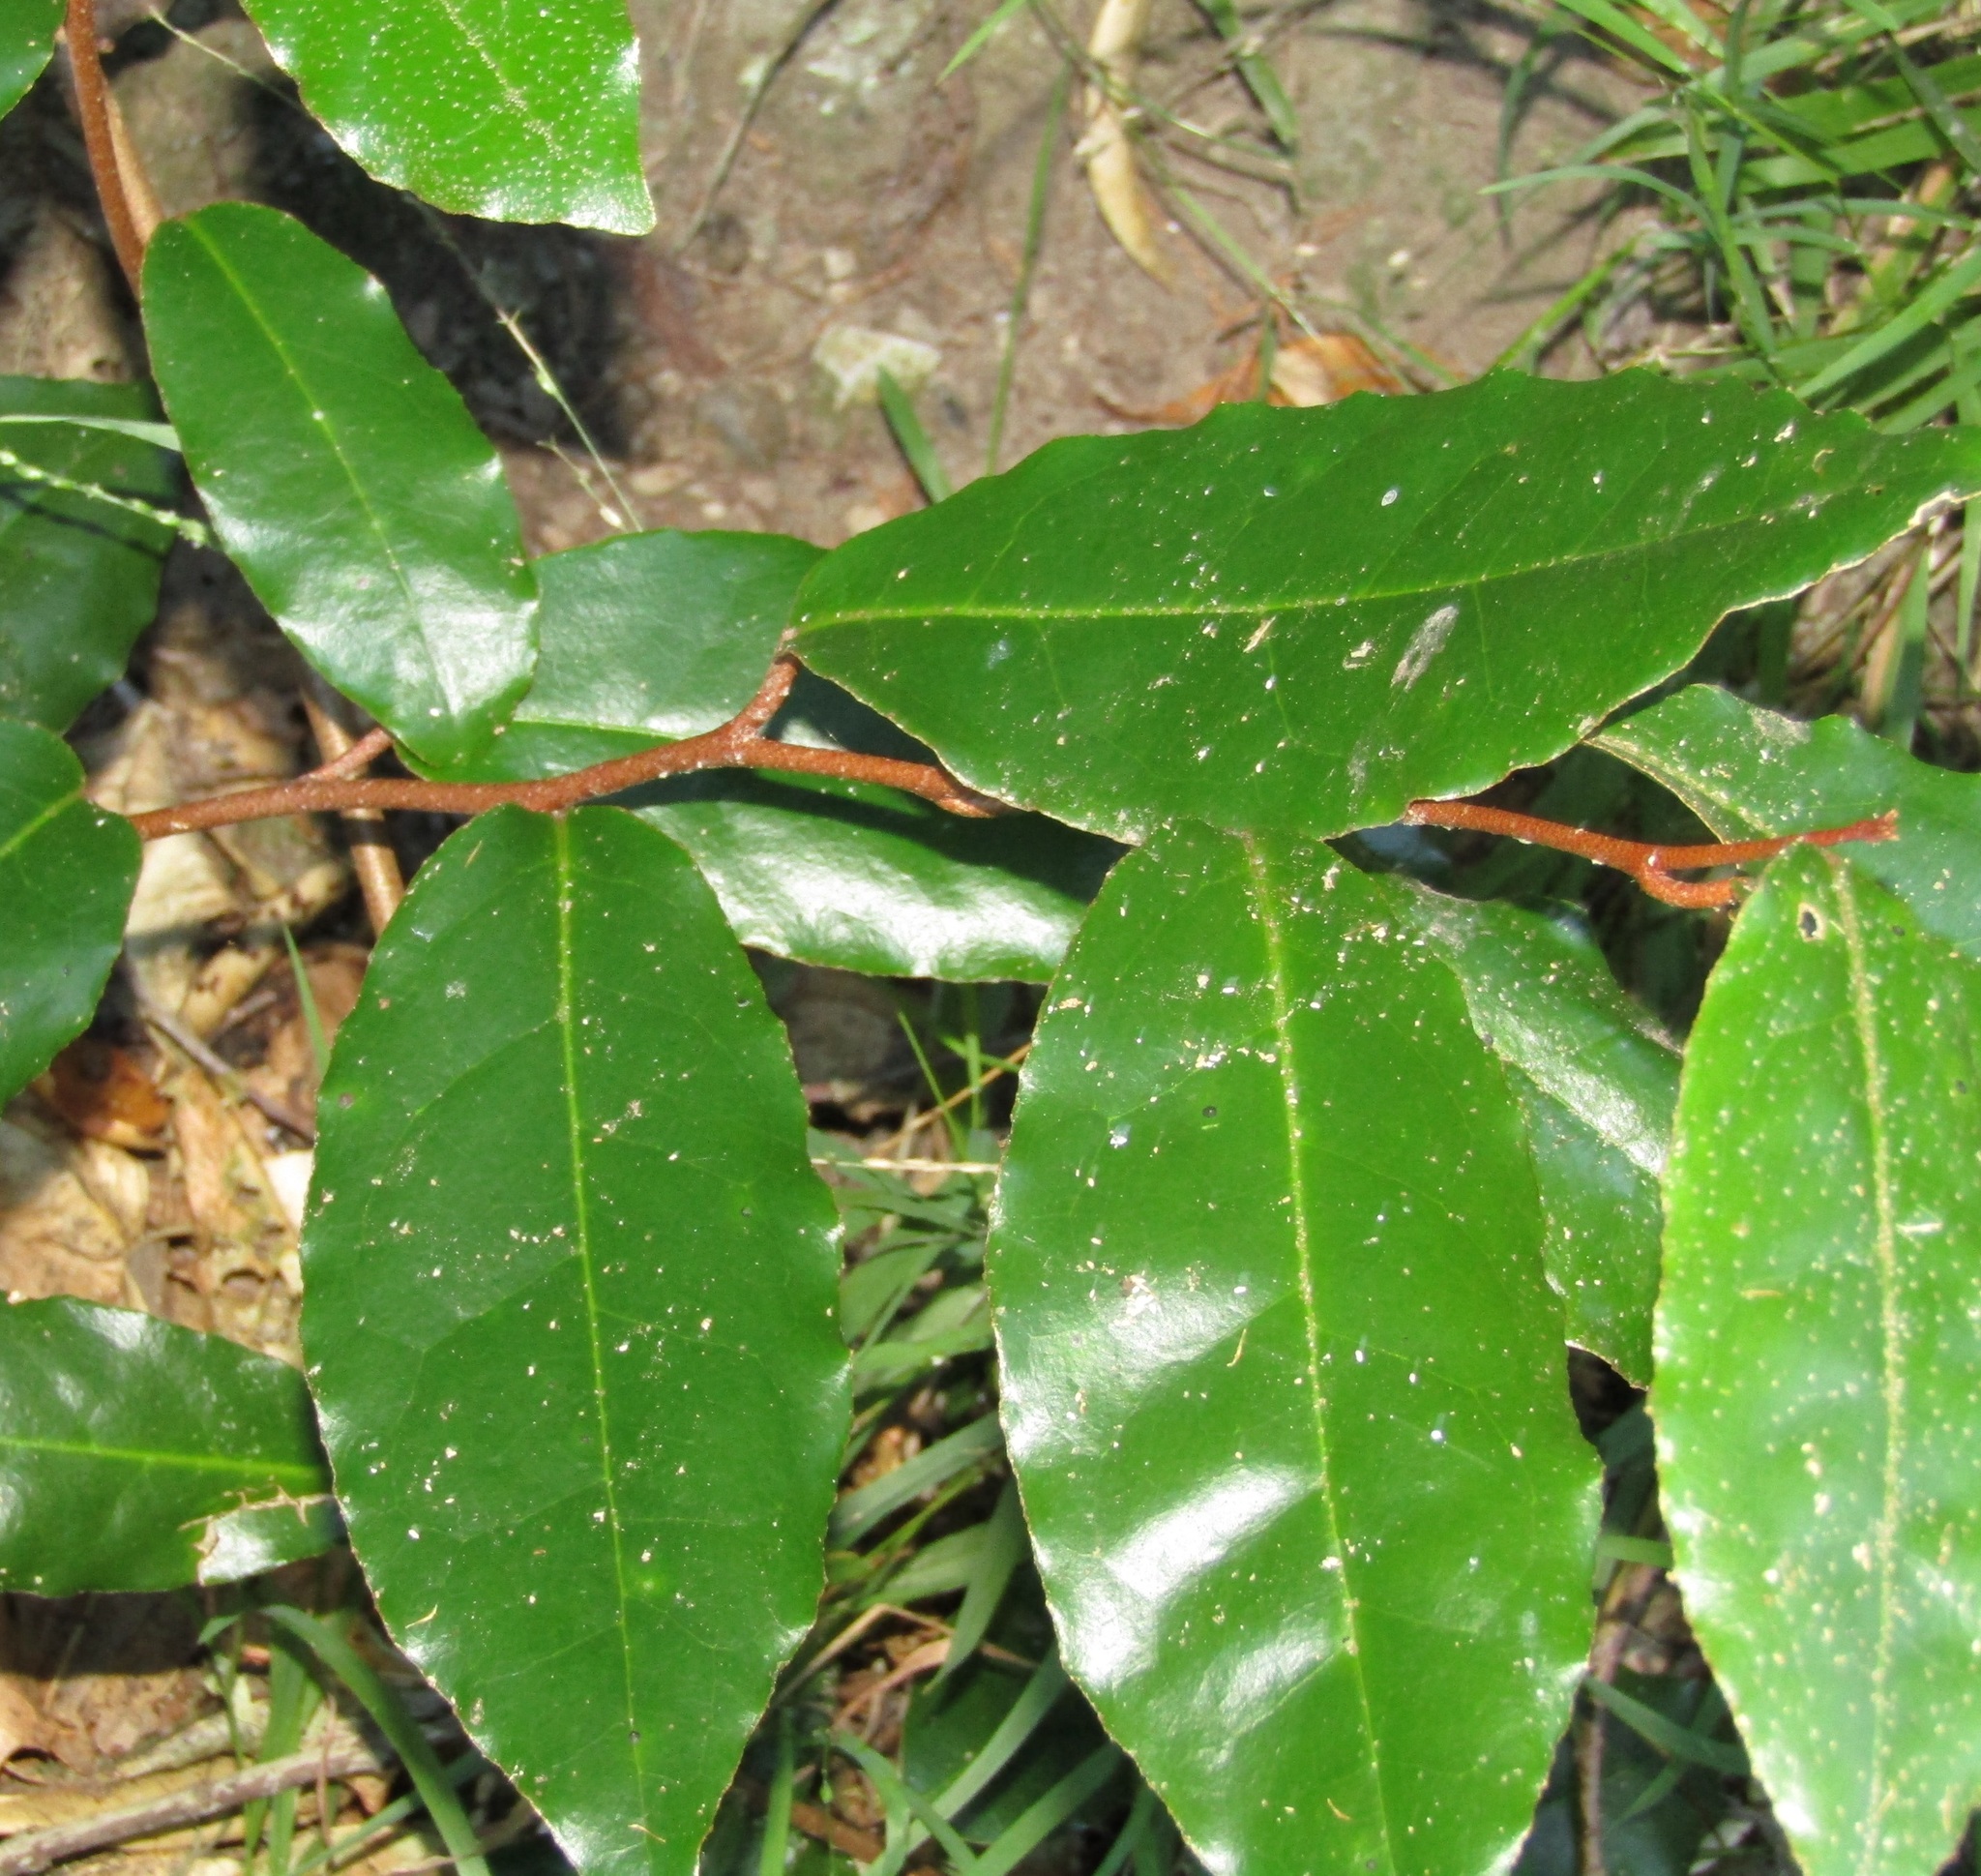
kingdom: Plantae
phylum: Tracheophyta
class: Magnoliopsida
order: Rosales
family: Elaeagnaceae
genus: Elaeagnus
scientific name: Elaeagnus reflexa
